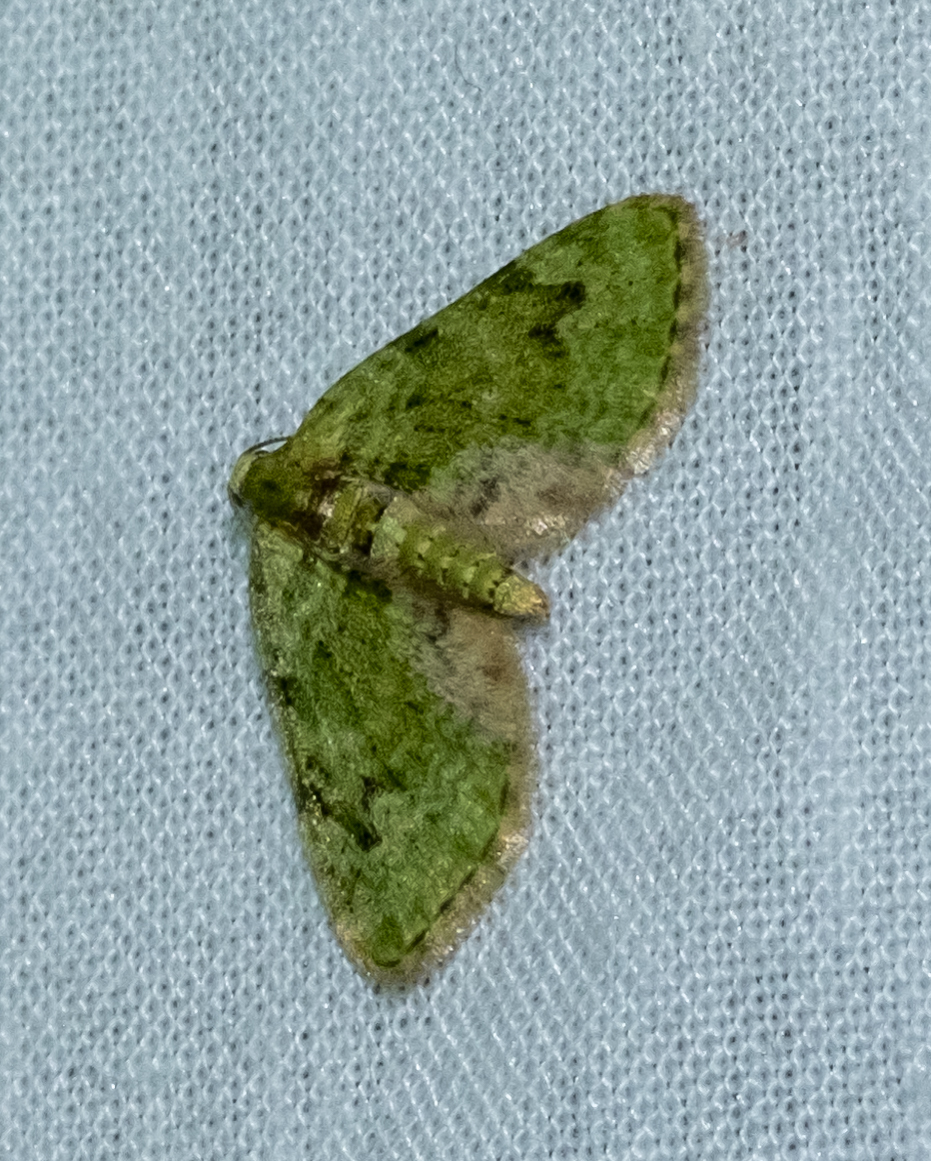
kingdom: Animalia
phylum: Arthropoda
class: Insecta
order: Lepidoptera
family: Geometridae
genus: Chloroclystis
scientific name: Chloroclystis v-ata
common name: V-pug
